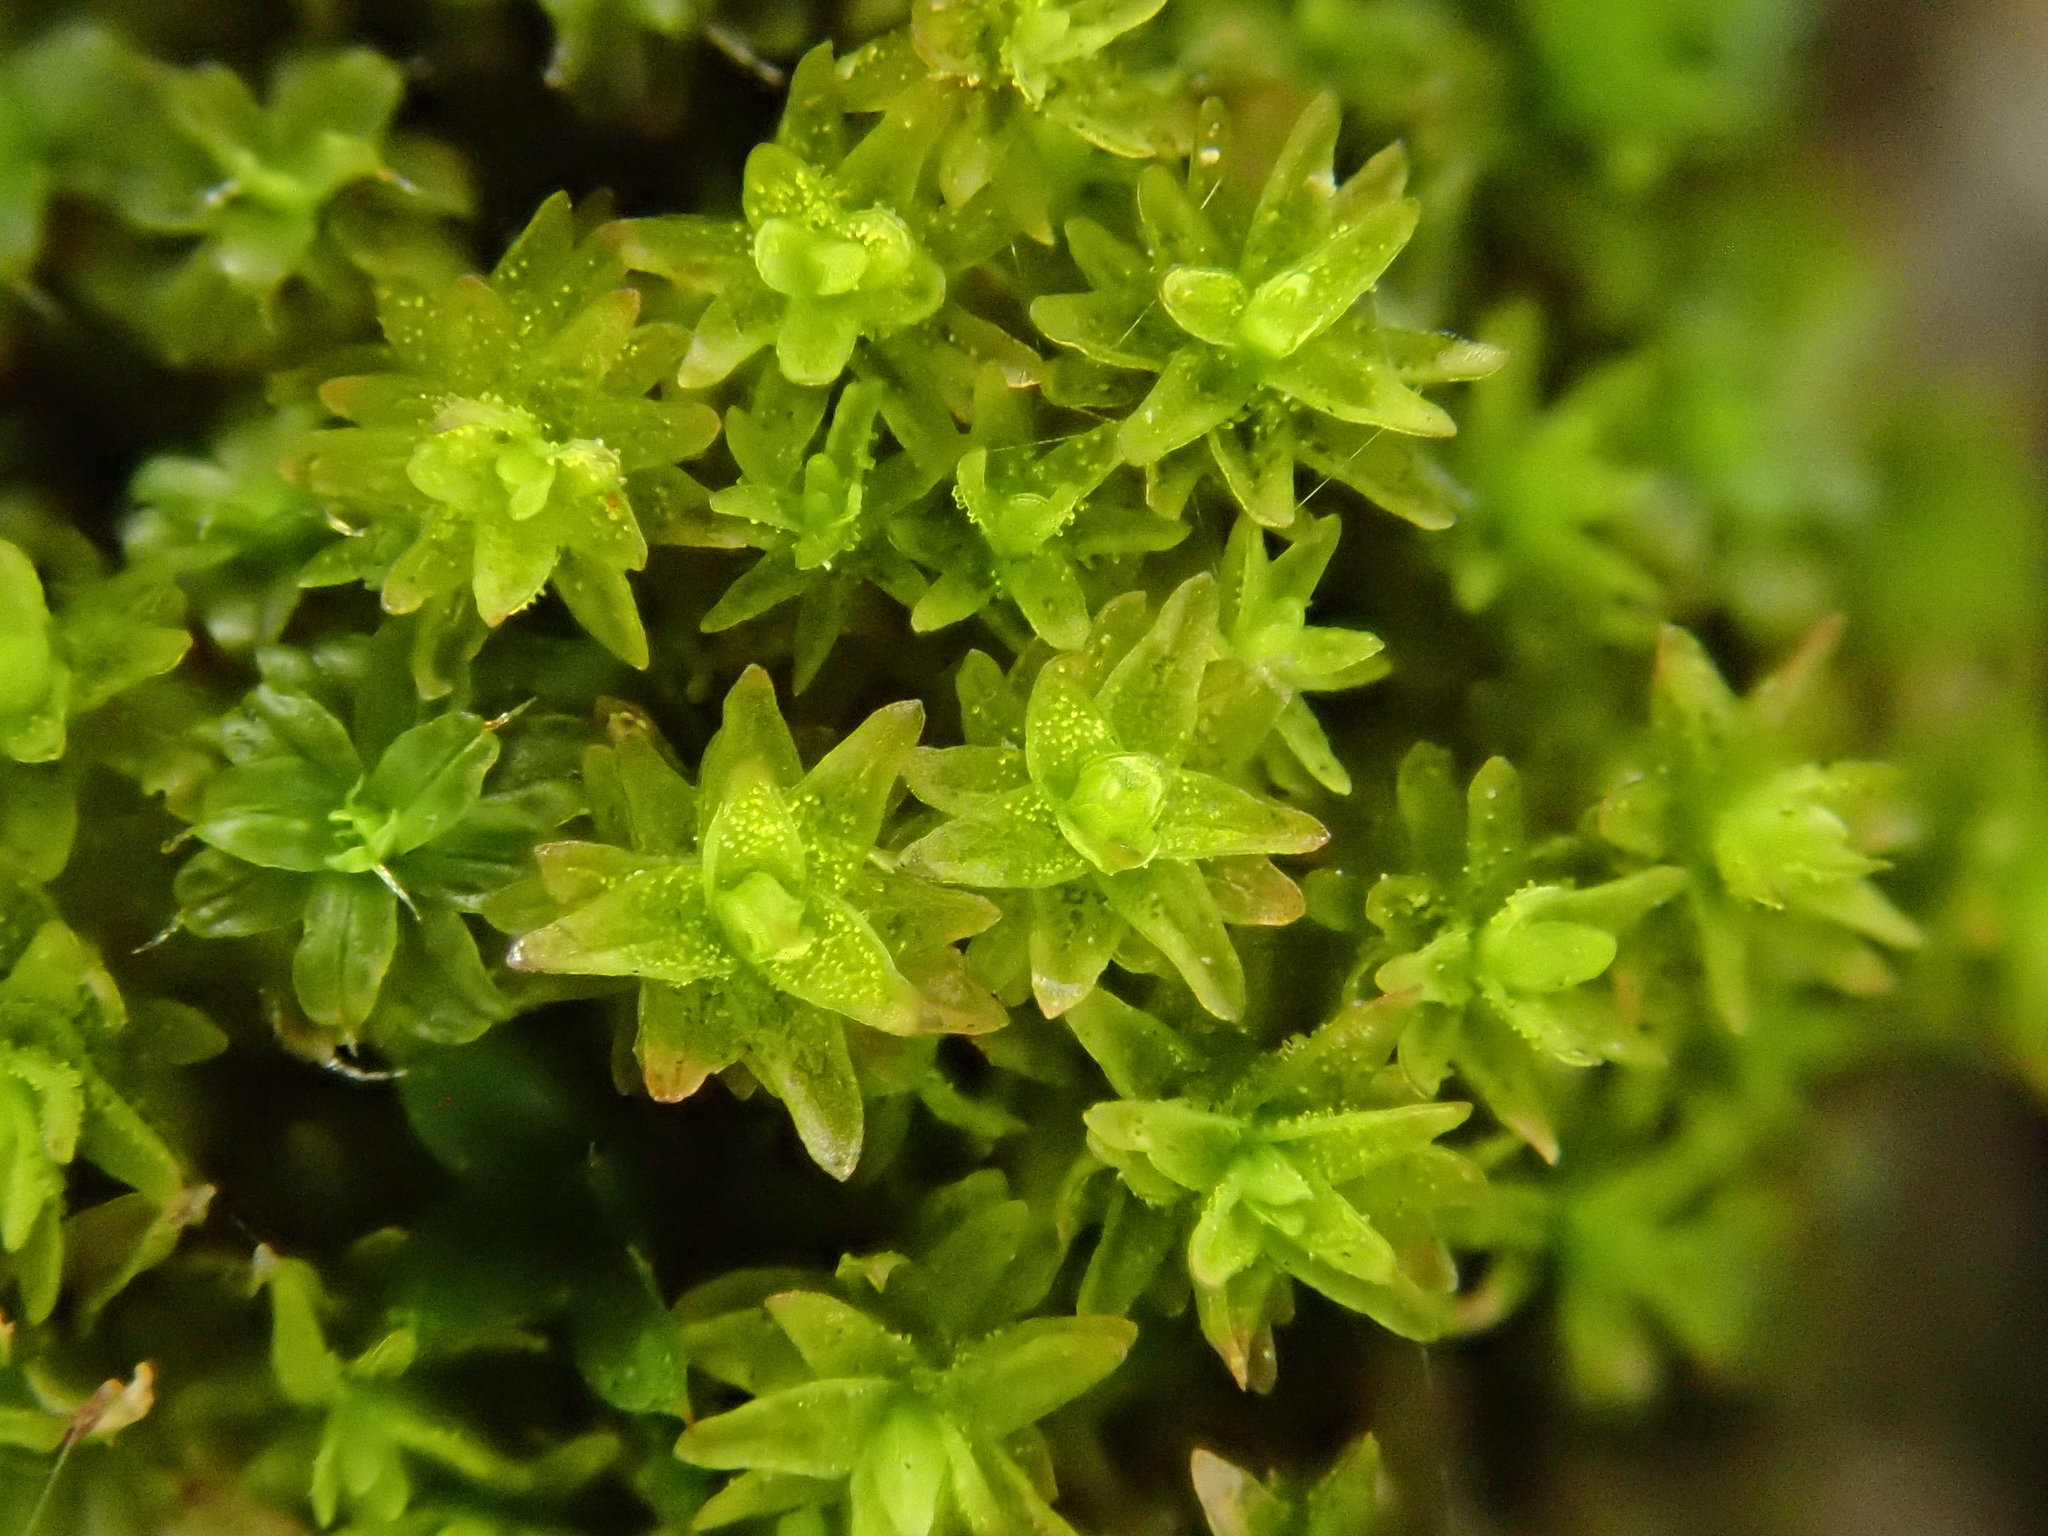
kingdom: Plantae
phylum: Bryophyta
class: Bryopsida
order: Orthotrichales
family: Orthotrichaceae
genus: Nyholmiella
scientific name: Nyholmiella obtusifolia
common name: Blunt-leaved bristle-moss
